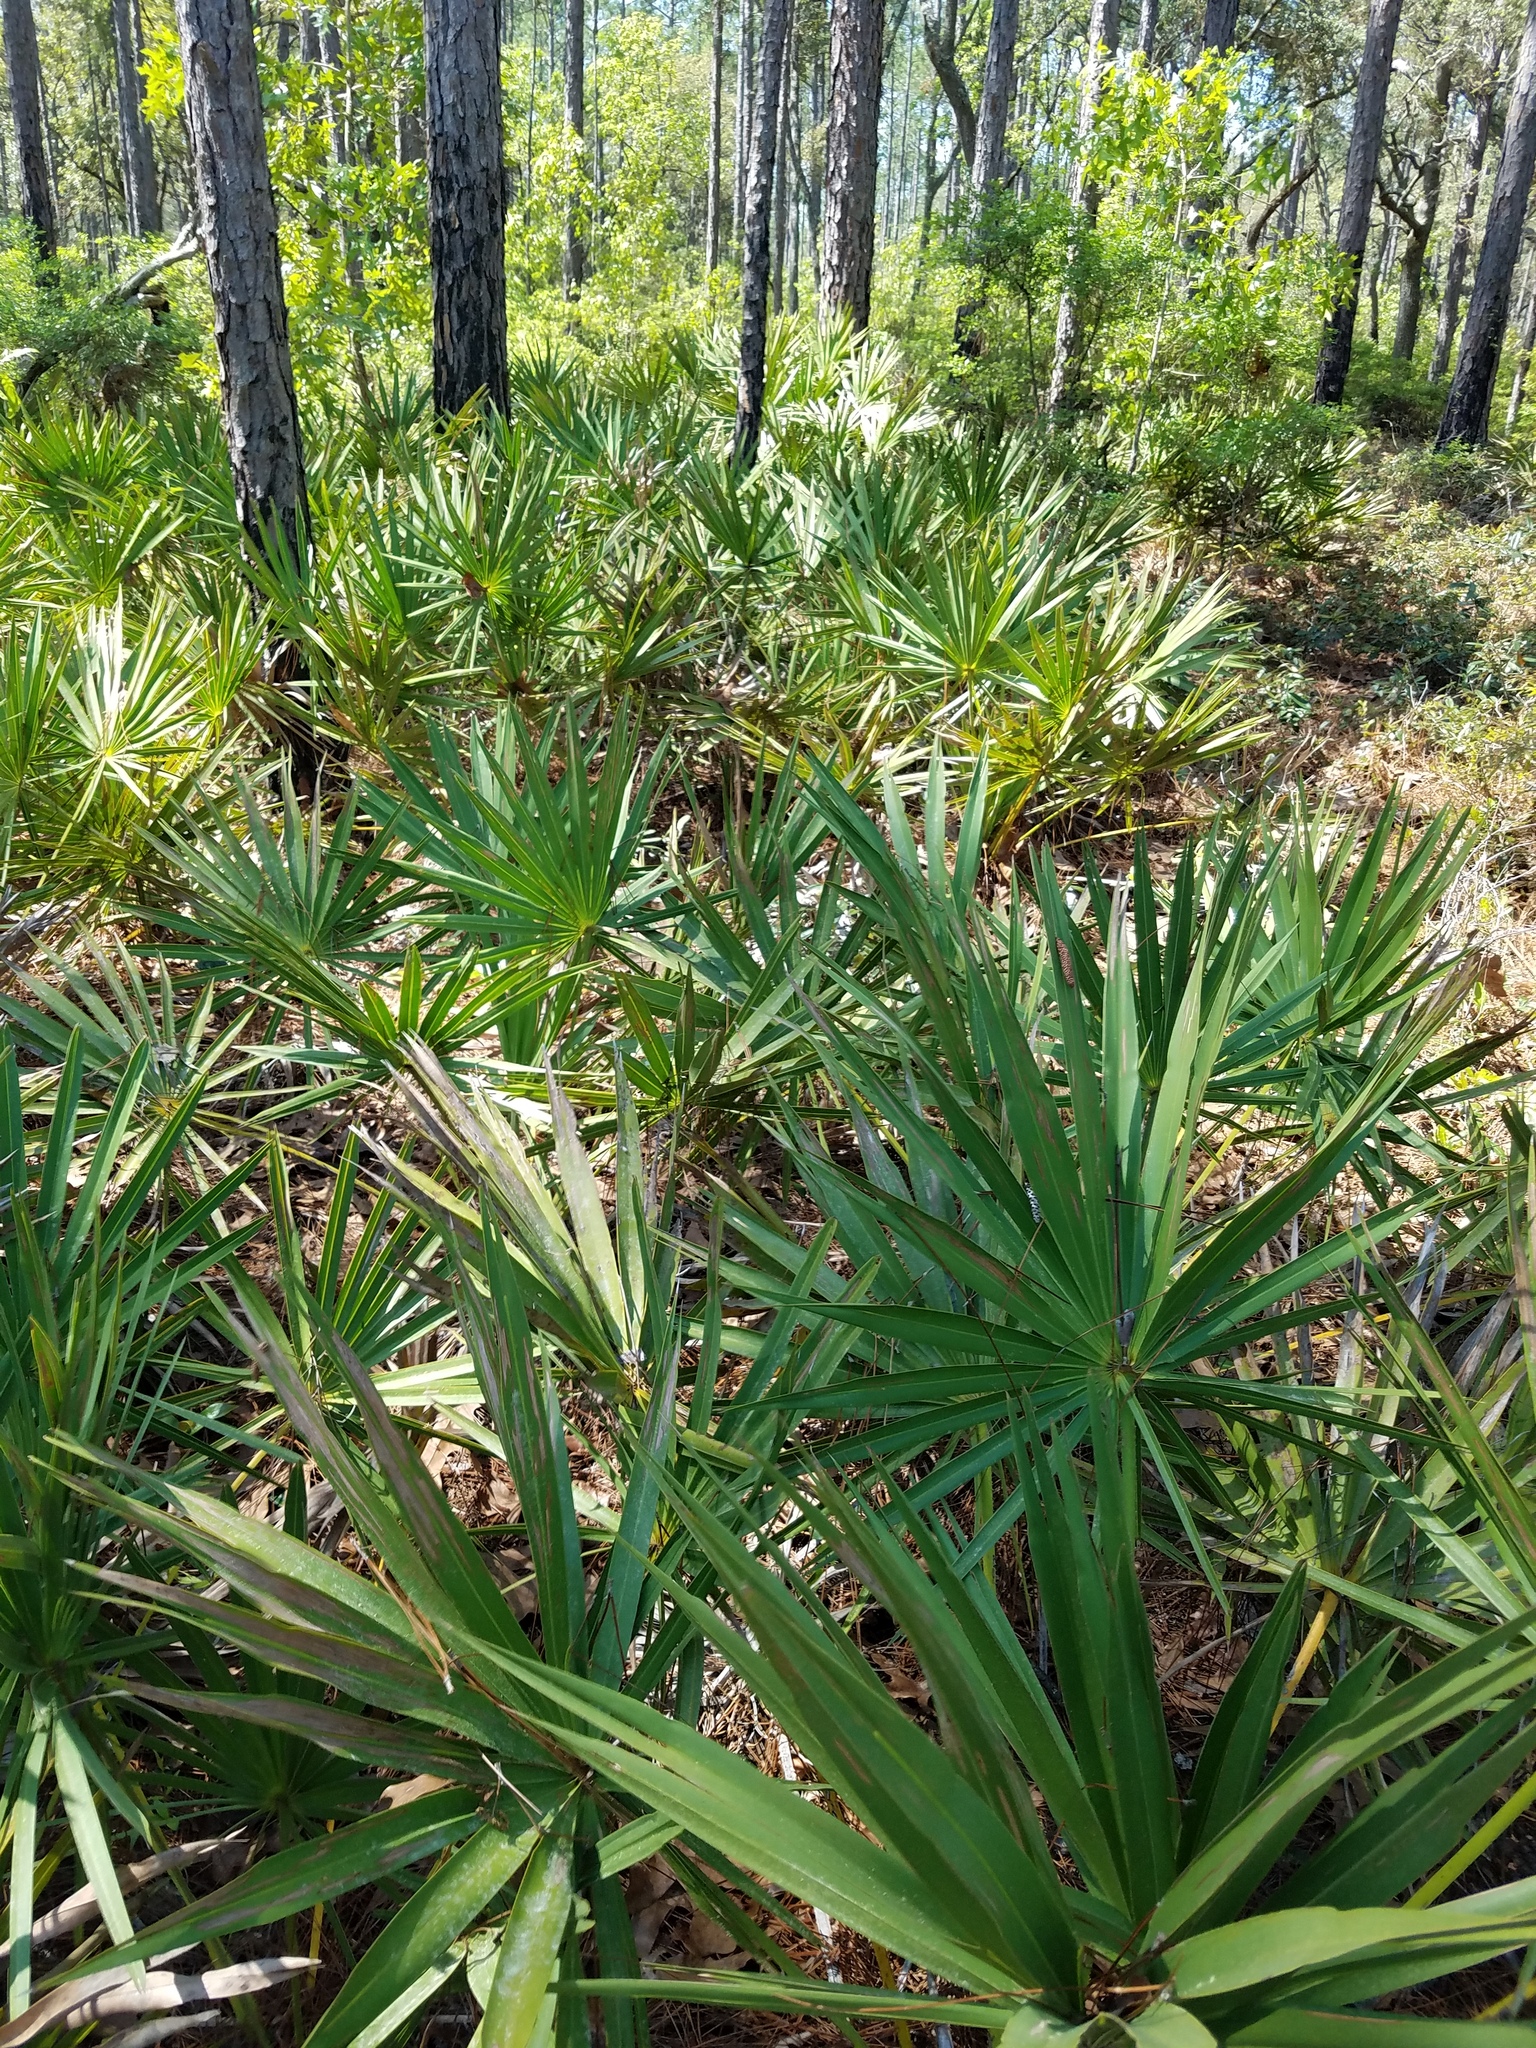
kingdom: Plantae
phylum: Tracheophyta
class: Liliopsida
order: Arecales
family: Arecaceae
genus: Serenoa
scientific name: Serenoa repens
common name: Saw-palmetto
